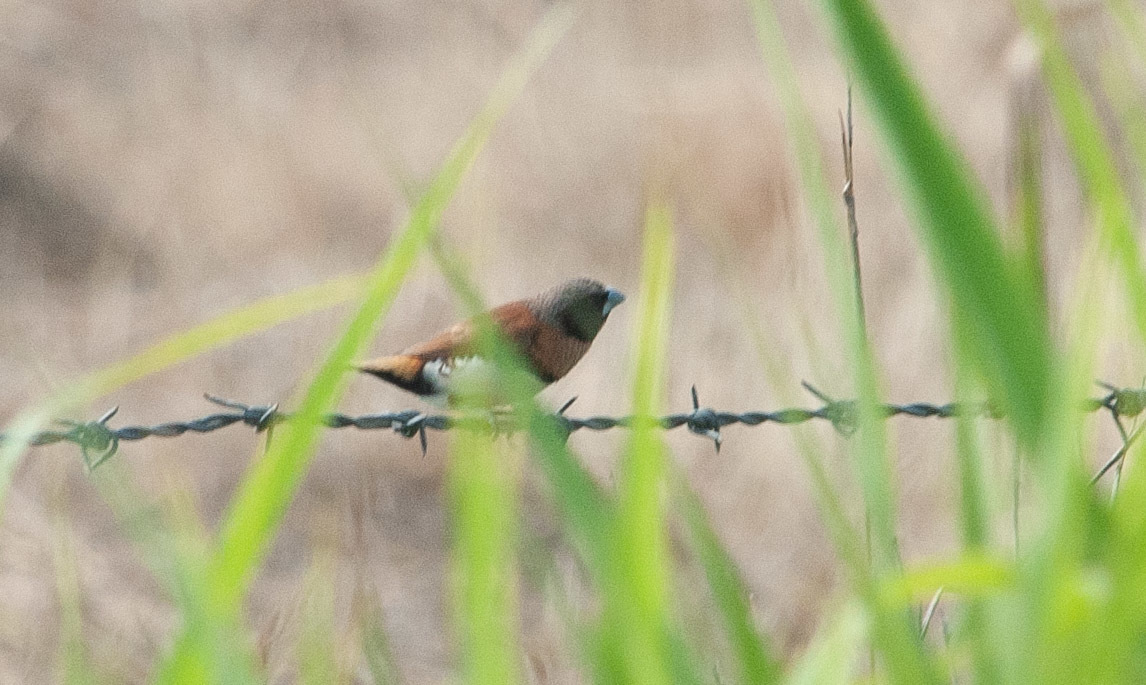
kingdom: Animalia
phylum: Chordata
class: Aves
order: Passeriformes
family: Estrildidae
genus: Lonchura
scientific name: Lonchura castaneothorax
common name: Chestnut-breasted mannikin
